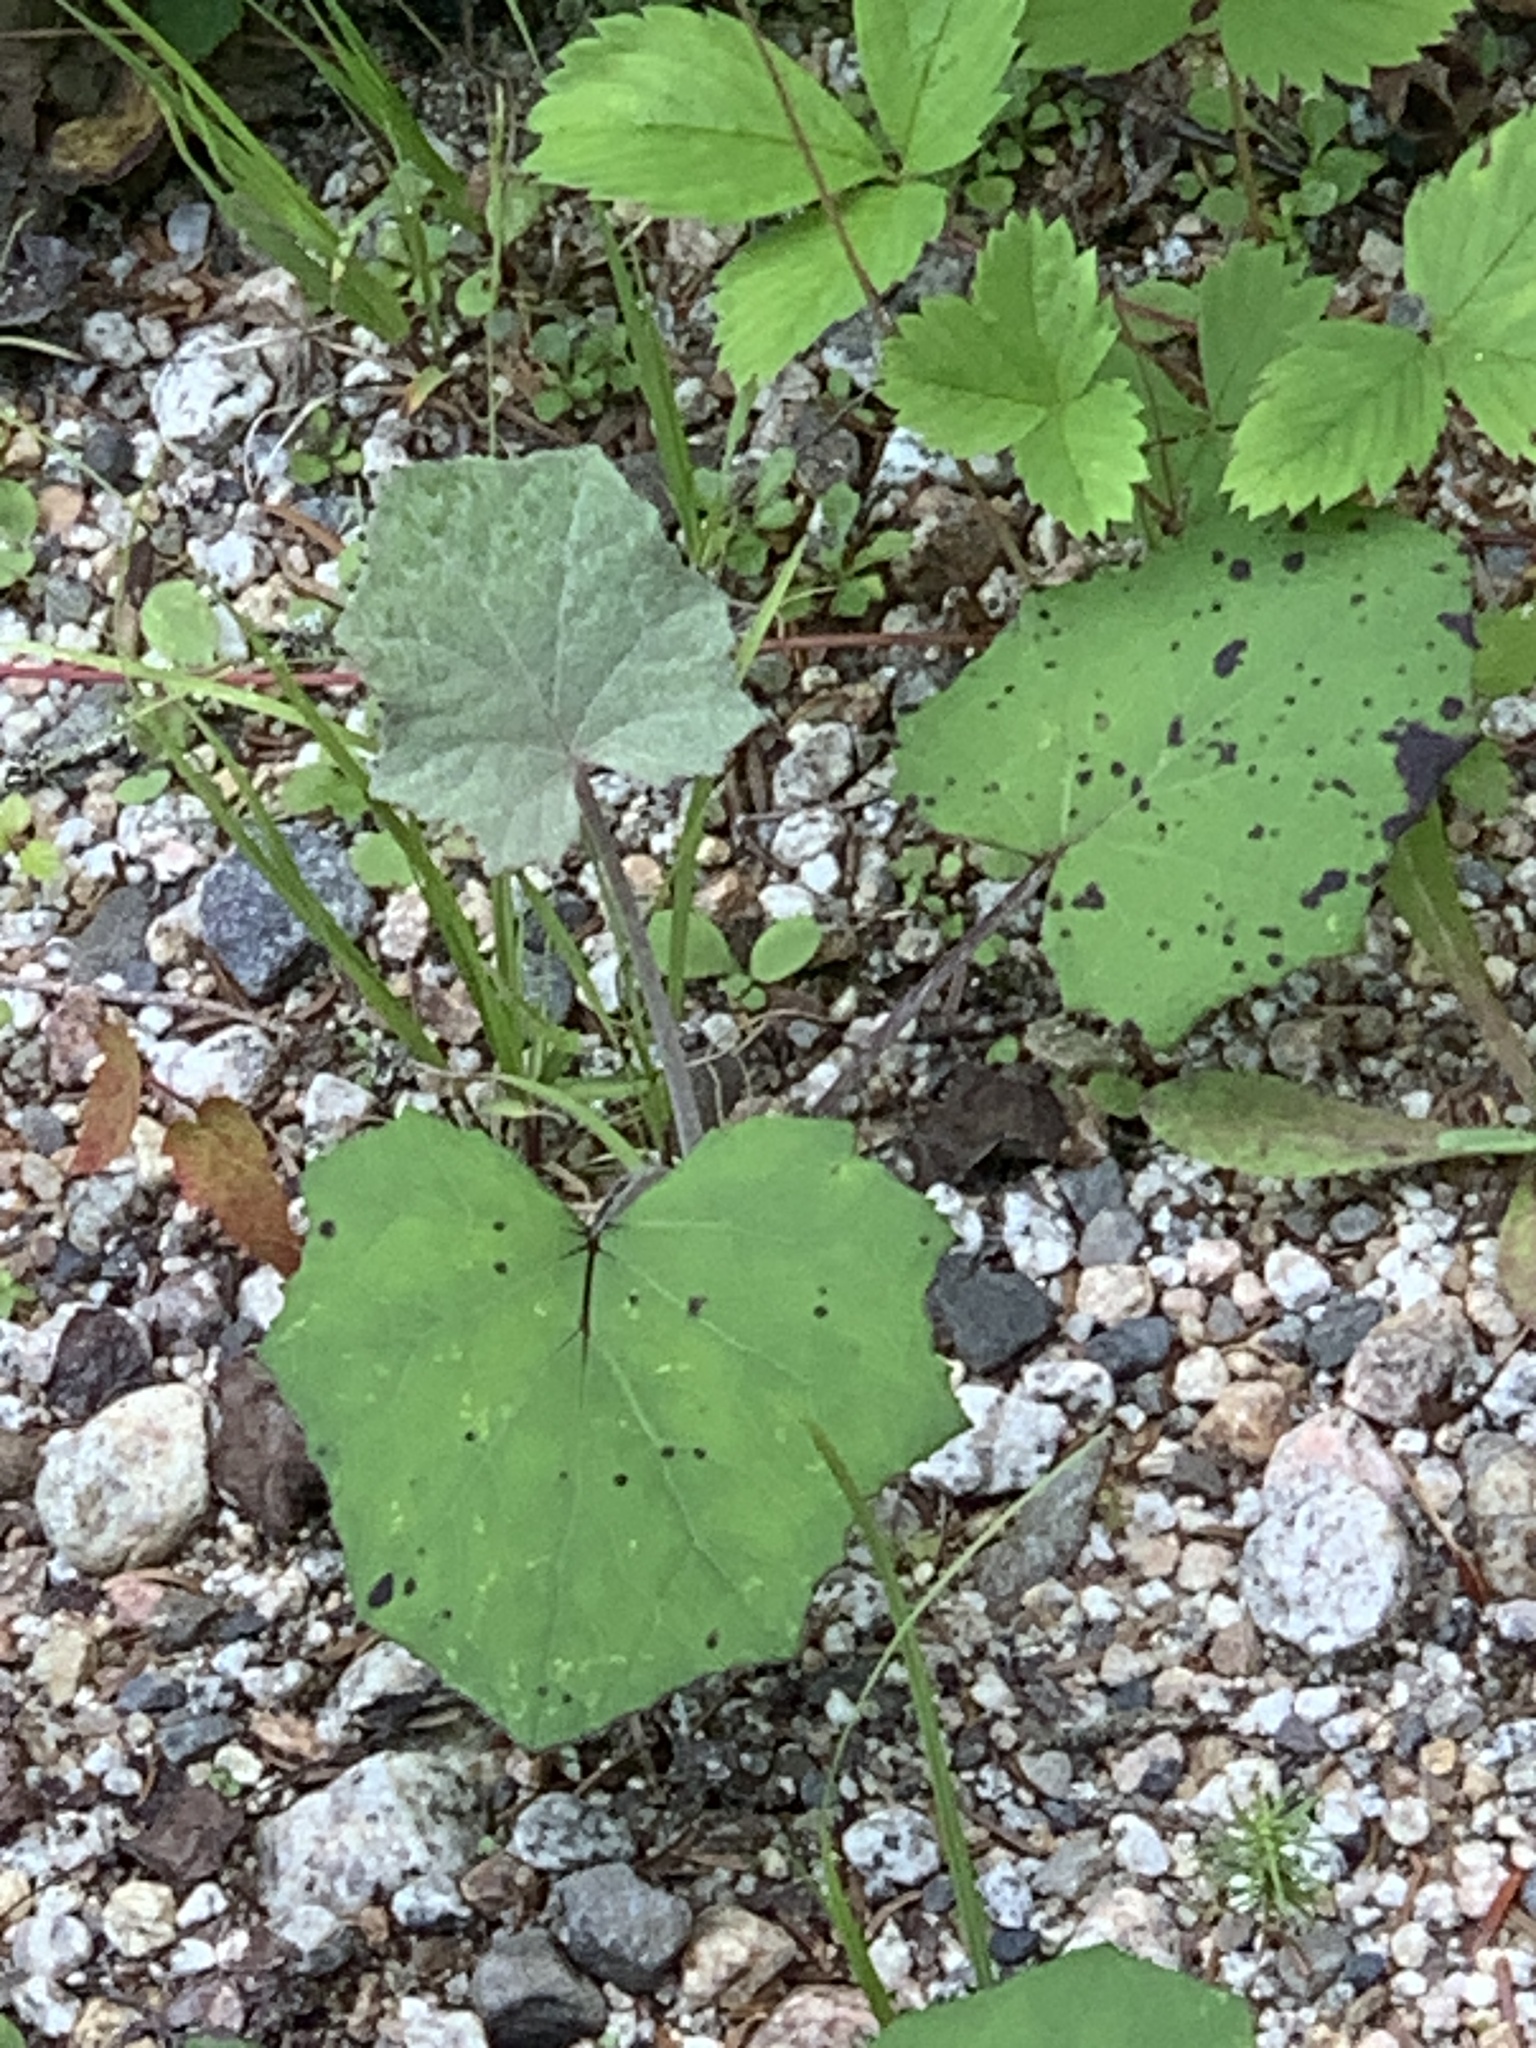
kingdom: Plantae
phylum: Tracheophyta
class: Magnoliopsida
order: Asterales
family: Asteraceae
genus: Tussilago
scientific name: Tussilago farfara
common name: Coltsfoot
